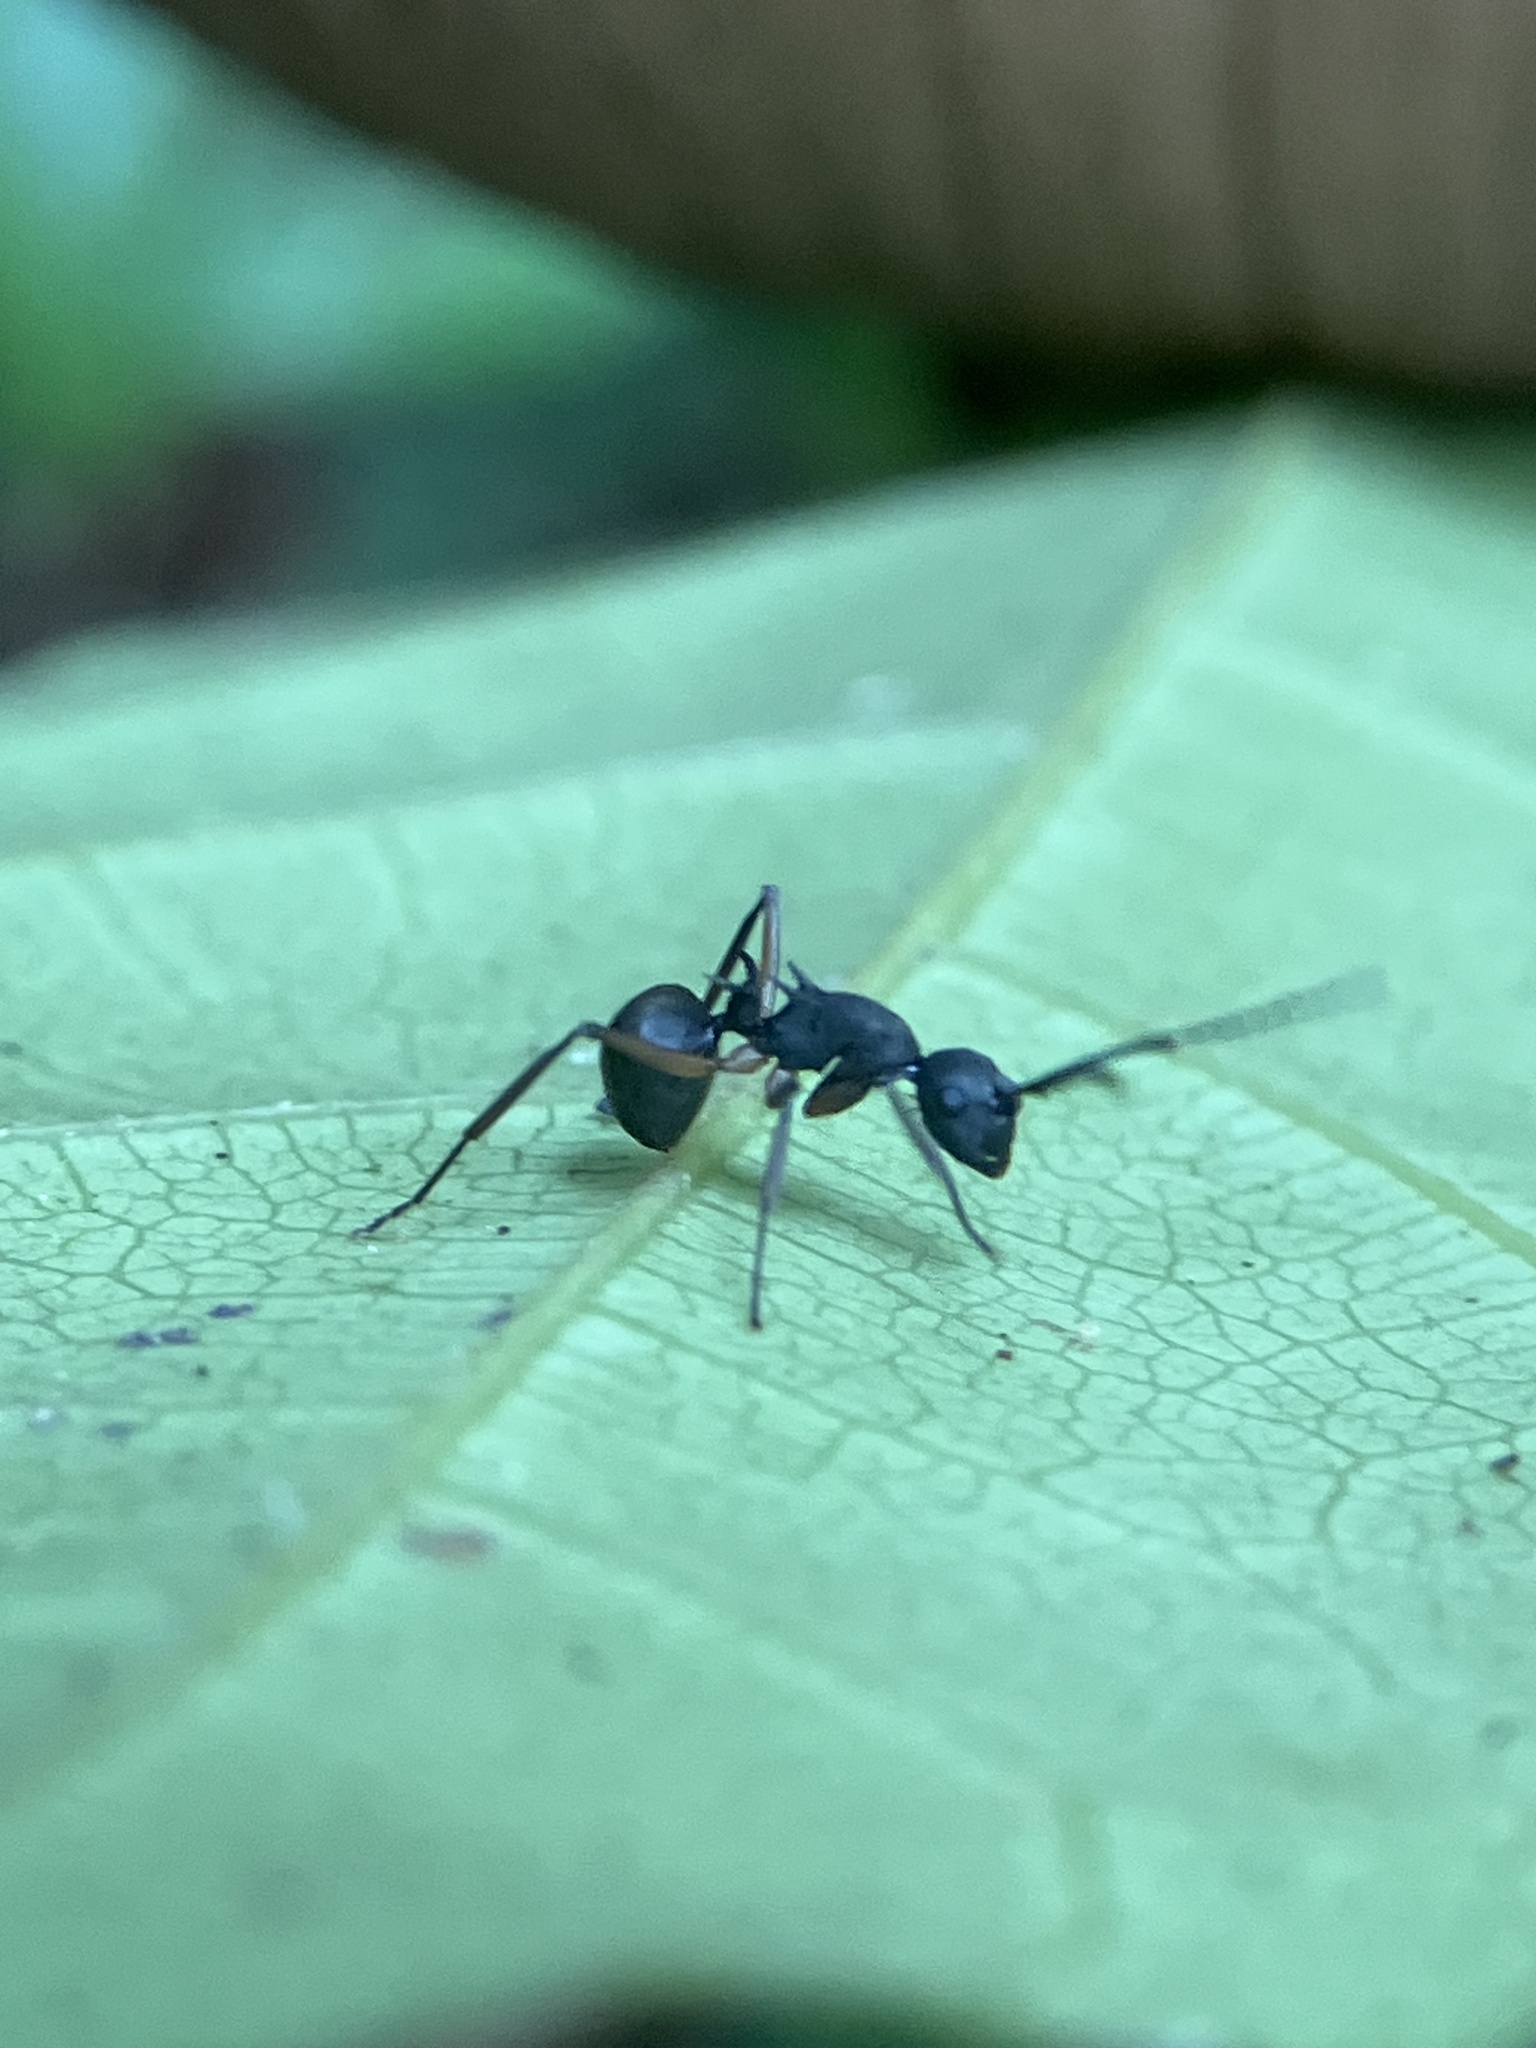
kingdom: Animalia
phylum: Arthropoda
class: Insecta
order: Hymenoptera
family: Formicidae
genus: Polyrhachis
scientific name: Polyrhachis hippomanes
